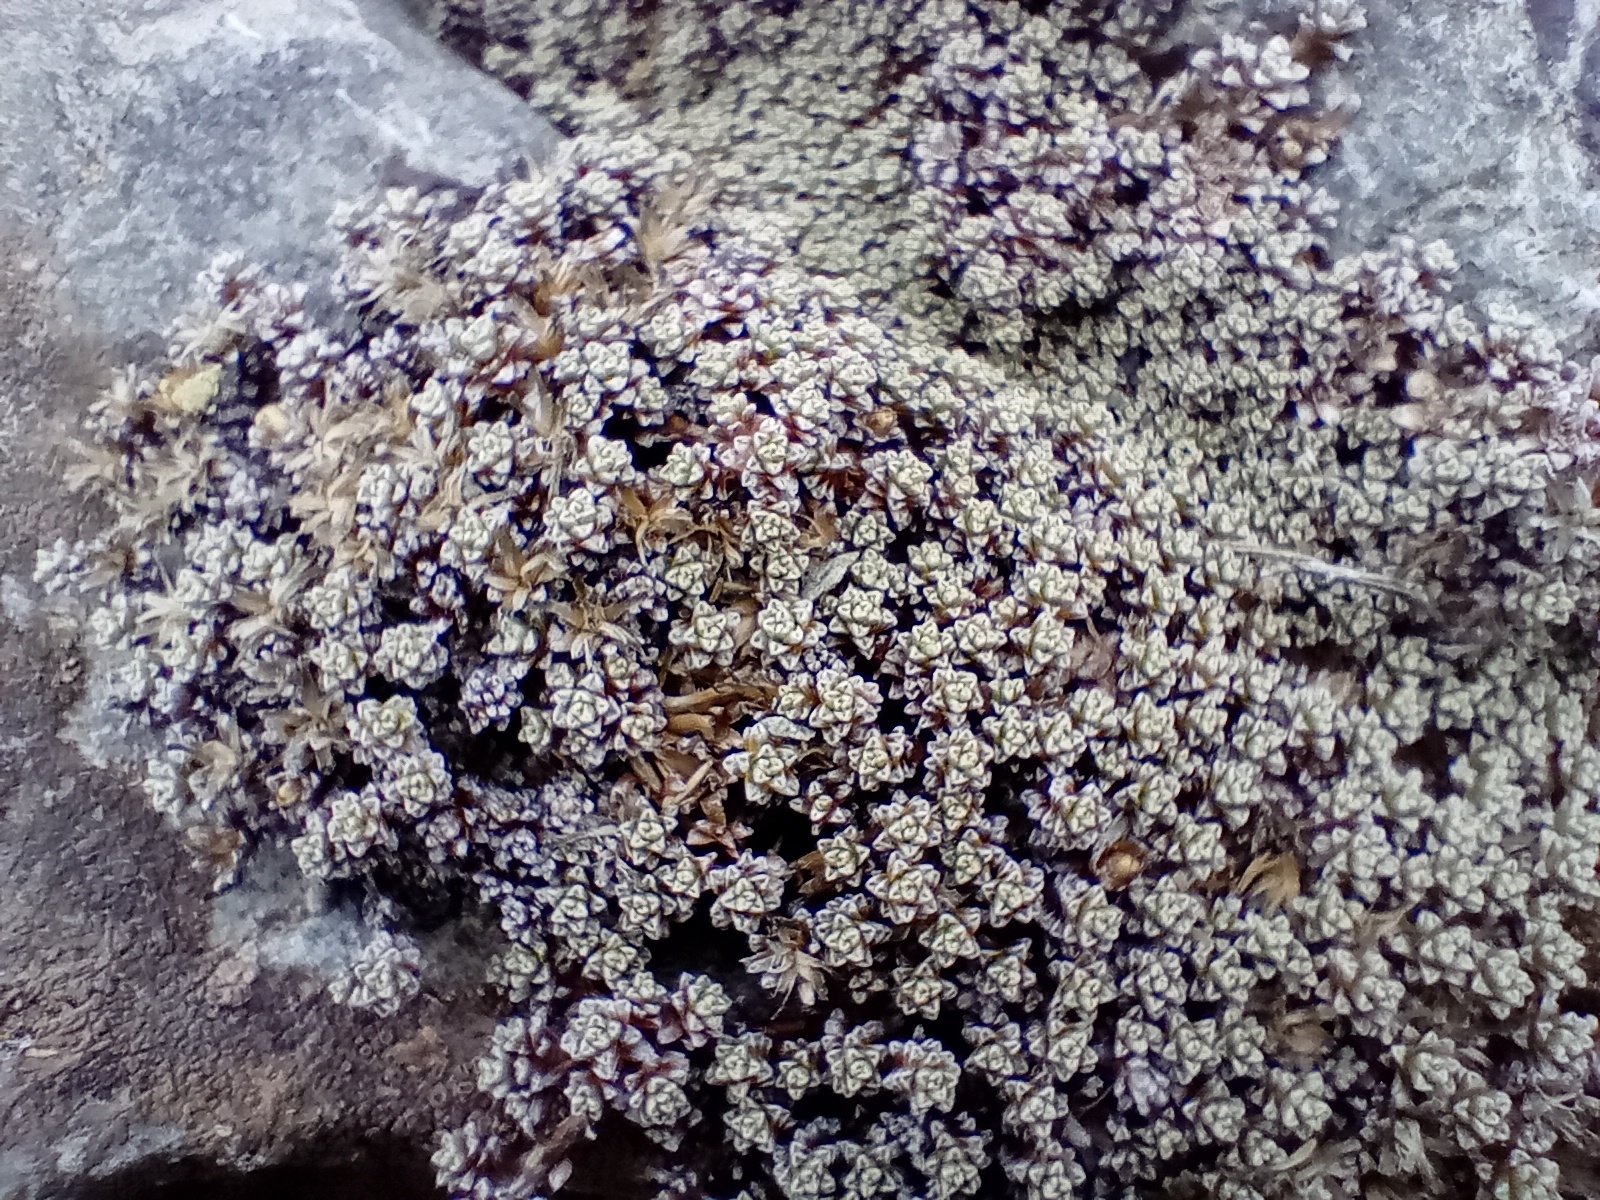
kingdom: Plantae
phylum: Tracheophyta
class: Magnoliopsida
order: Asterales
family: Asteraceae
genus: Raoulia
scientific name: Raoulia hectorii
